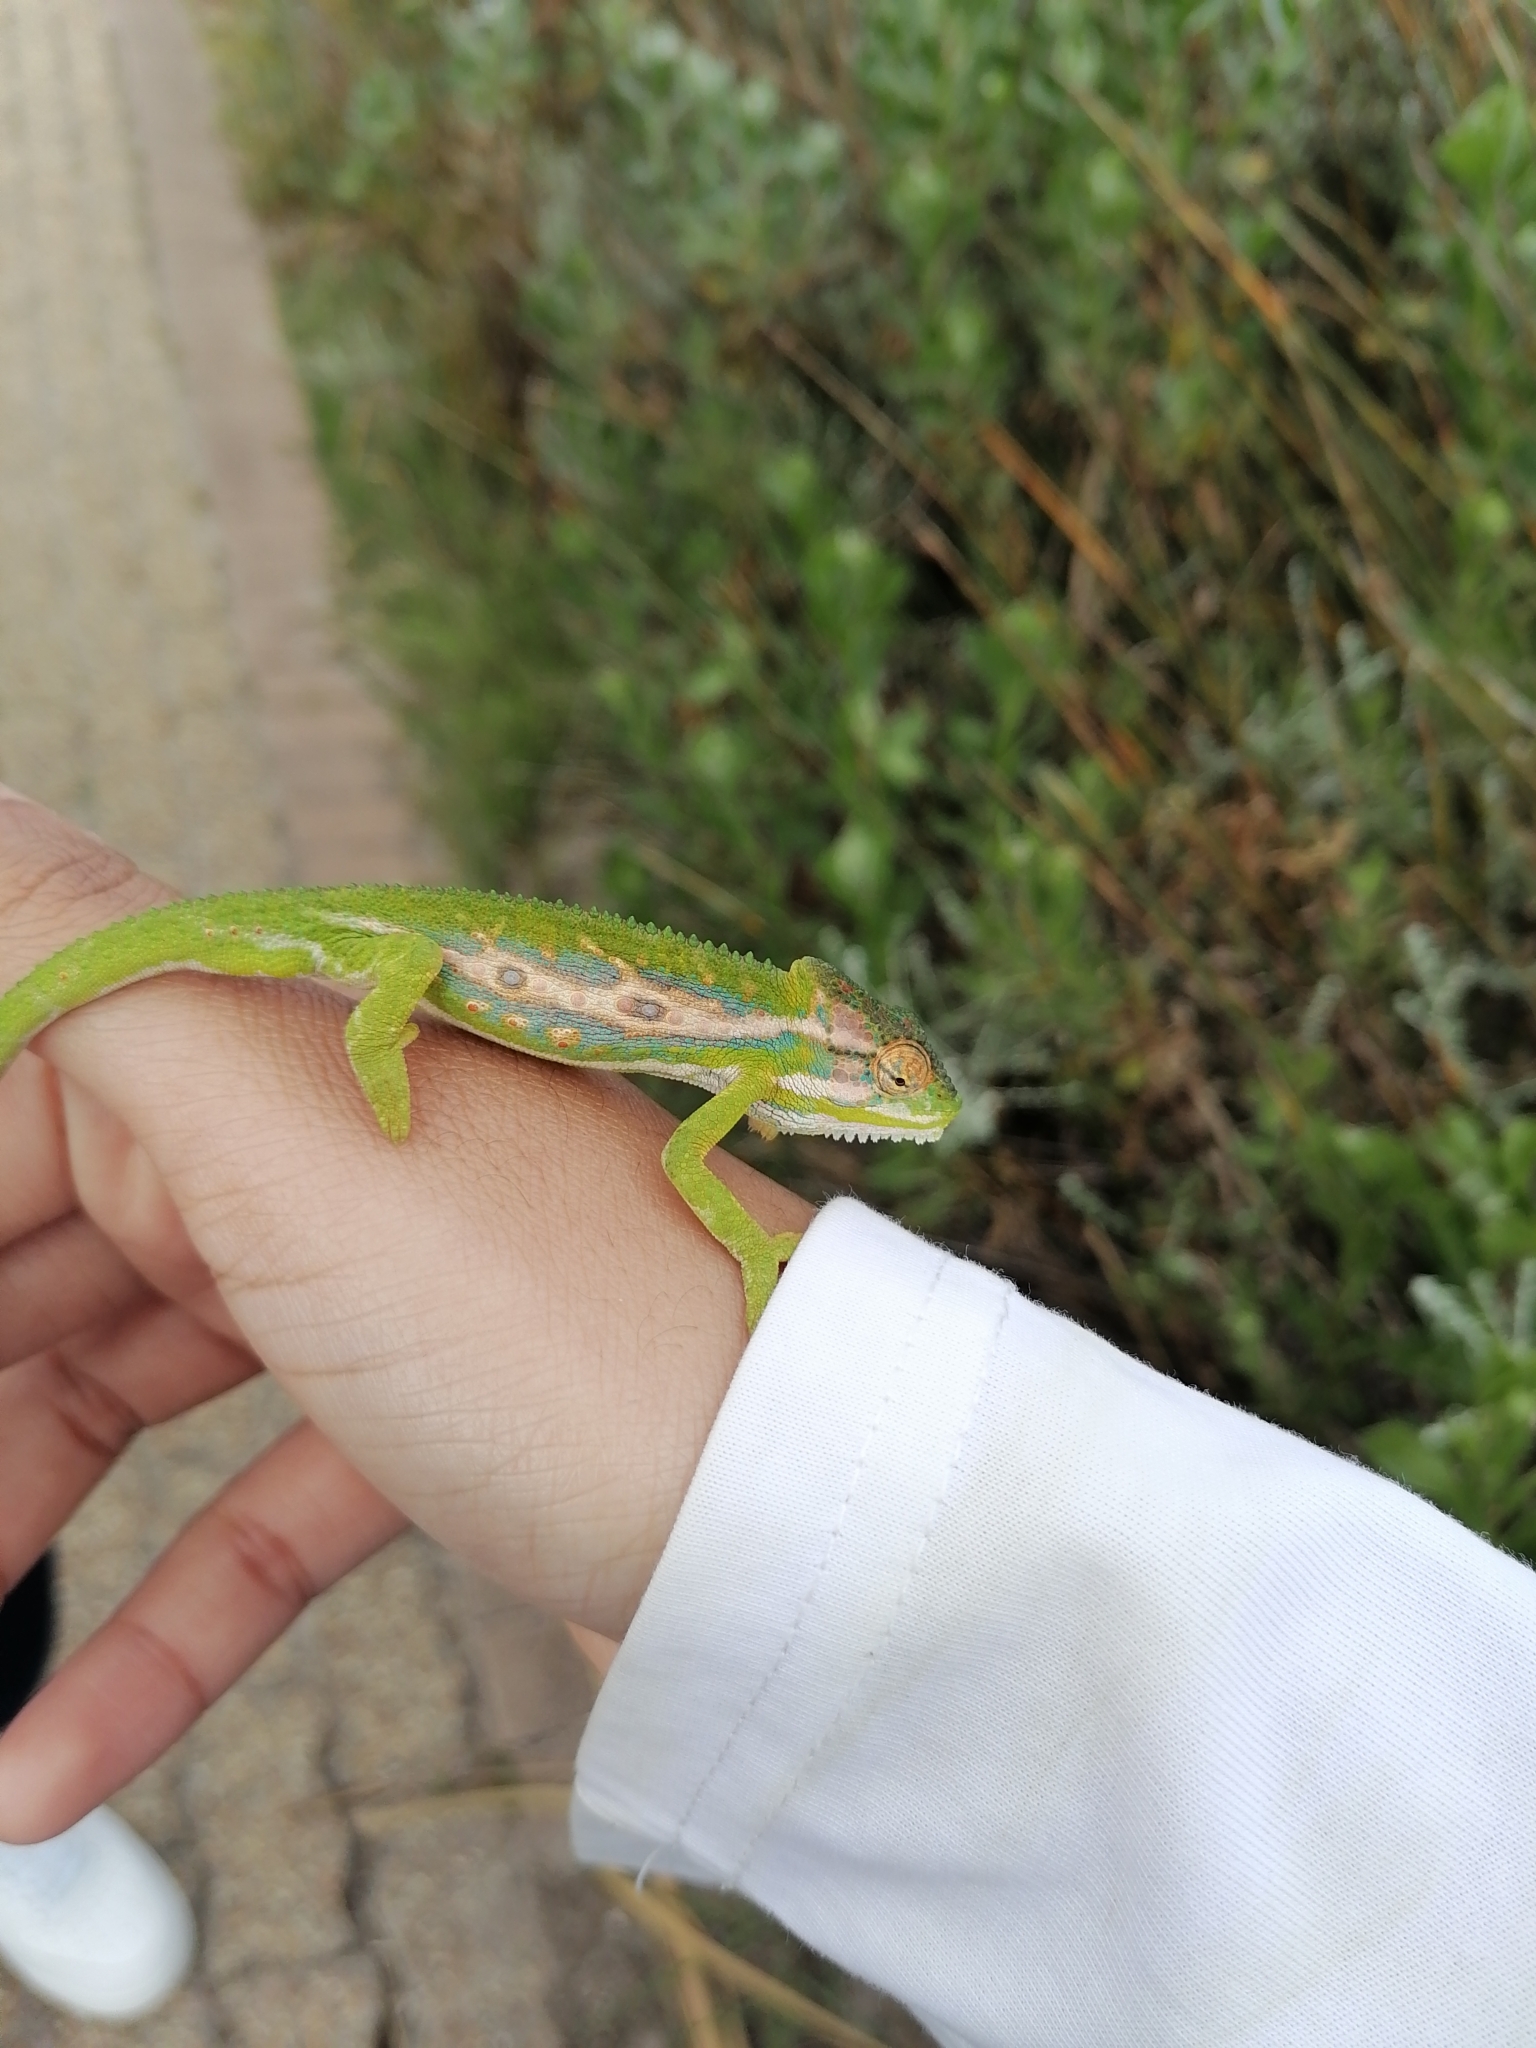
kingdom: Animalia
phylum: Chordata
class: Squamata
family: Chamaeleonidae
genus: Bradypodion
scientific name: Bradypodion pumilum
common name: Cape dwarf chameleon
